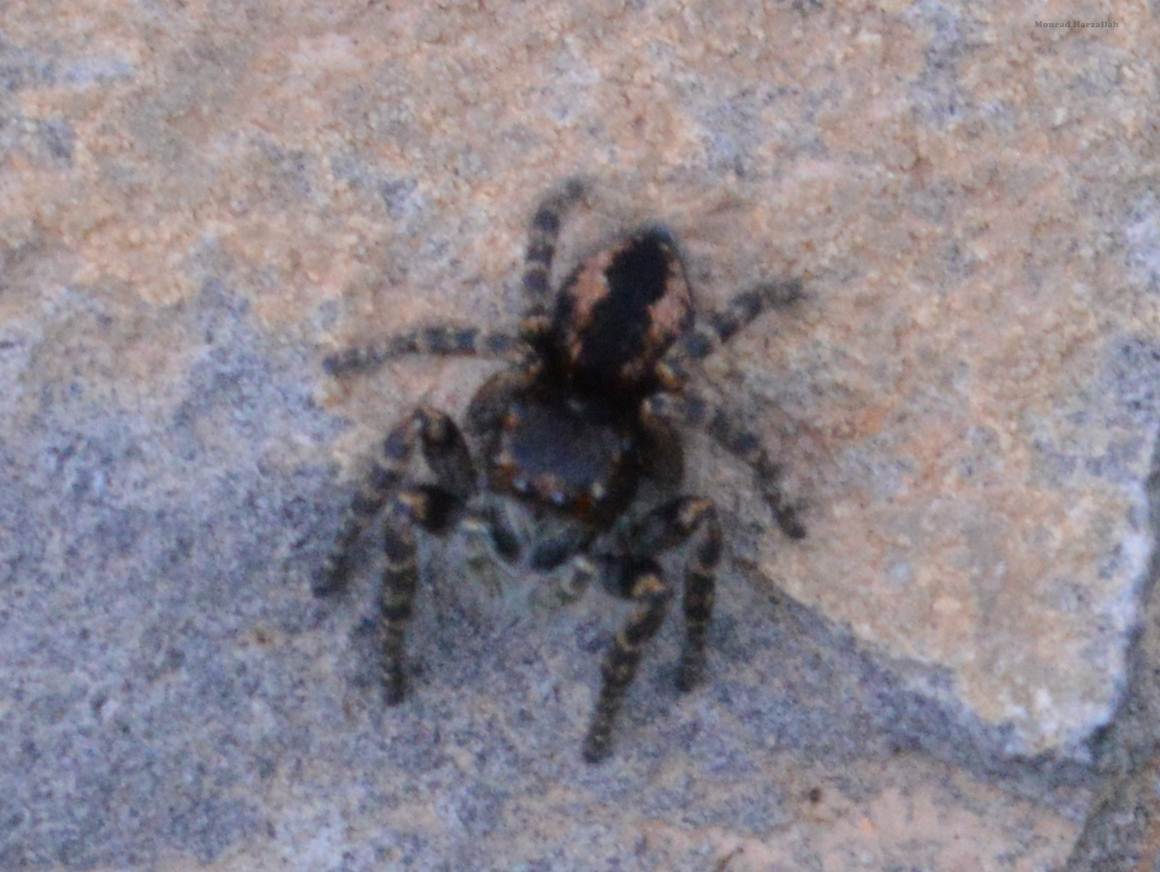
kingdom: Animalia
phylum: Arthropoda
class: Arachnida
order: Araneae
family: Salticidae
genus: Philaeus
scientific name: Philaeus chrysops
